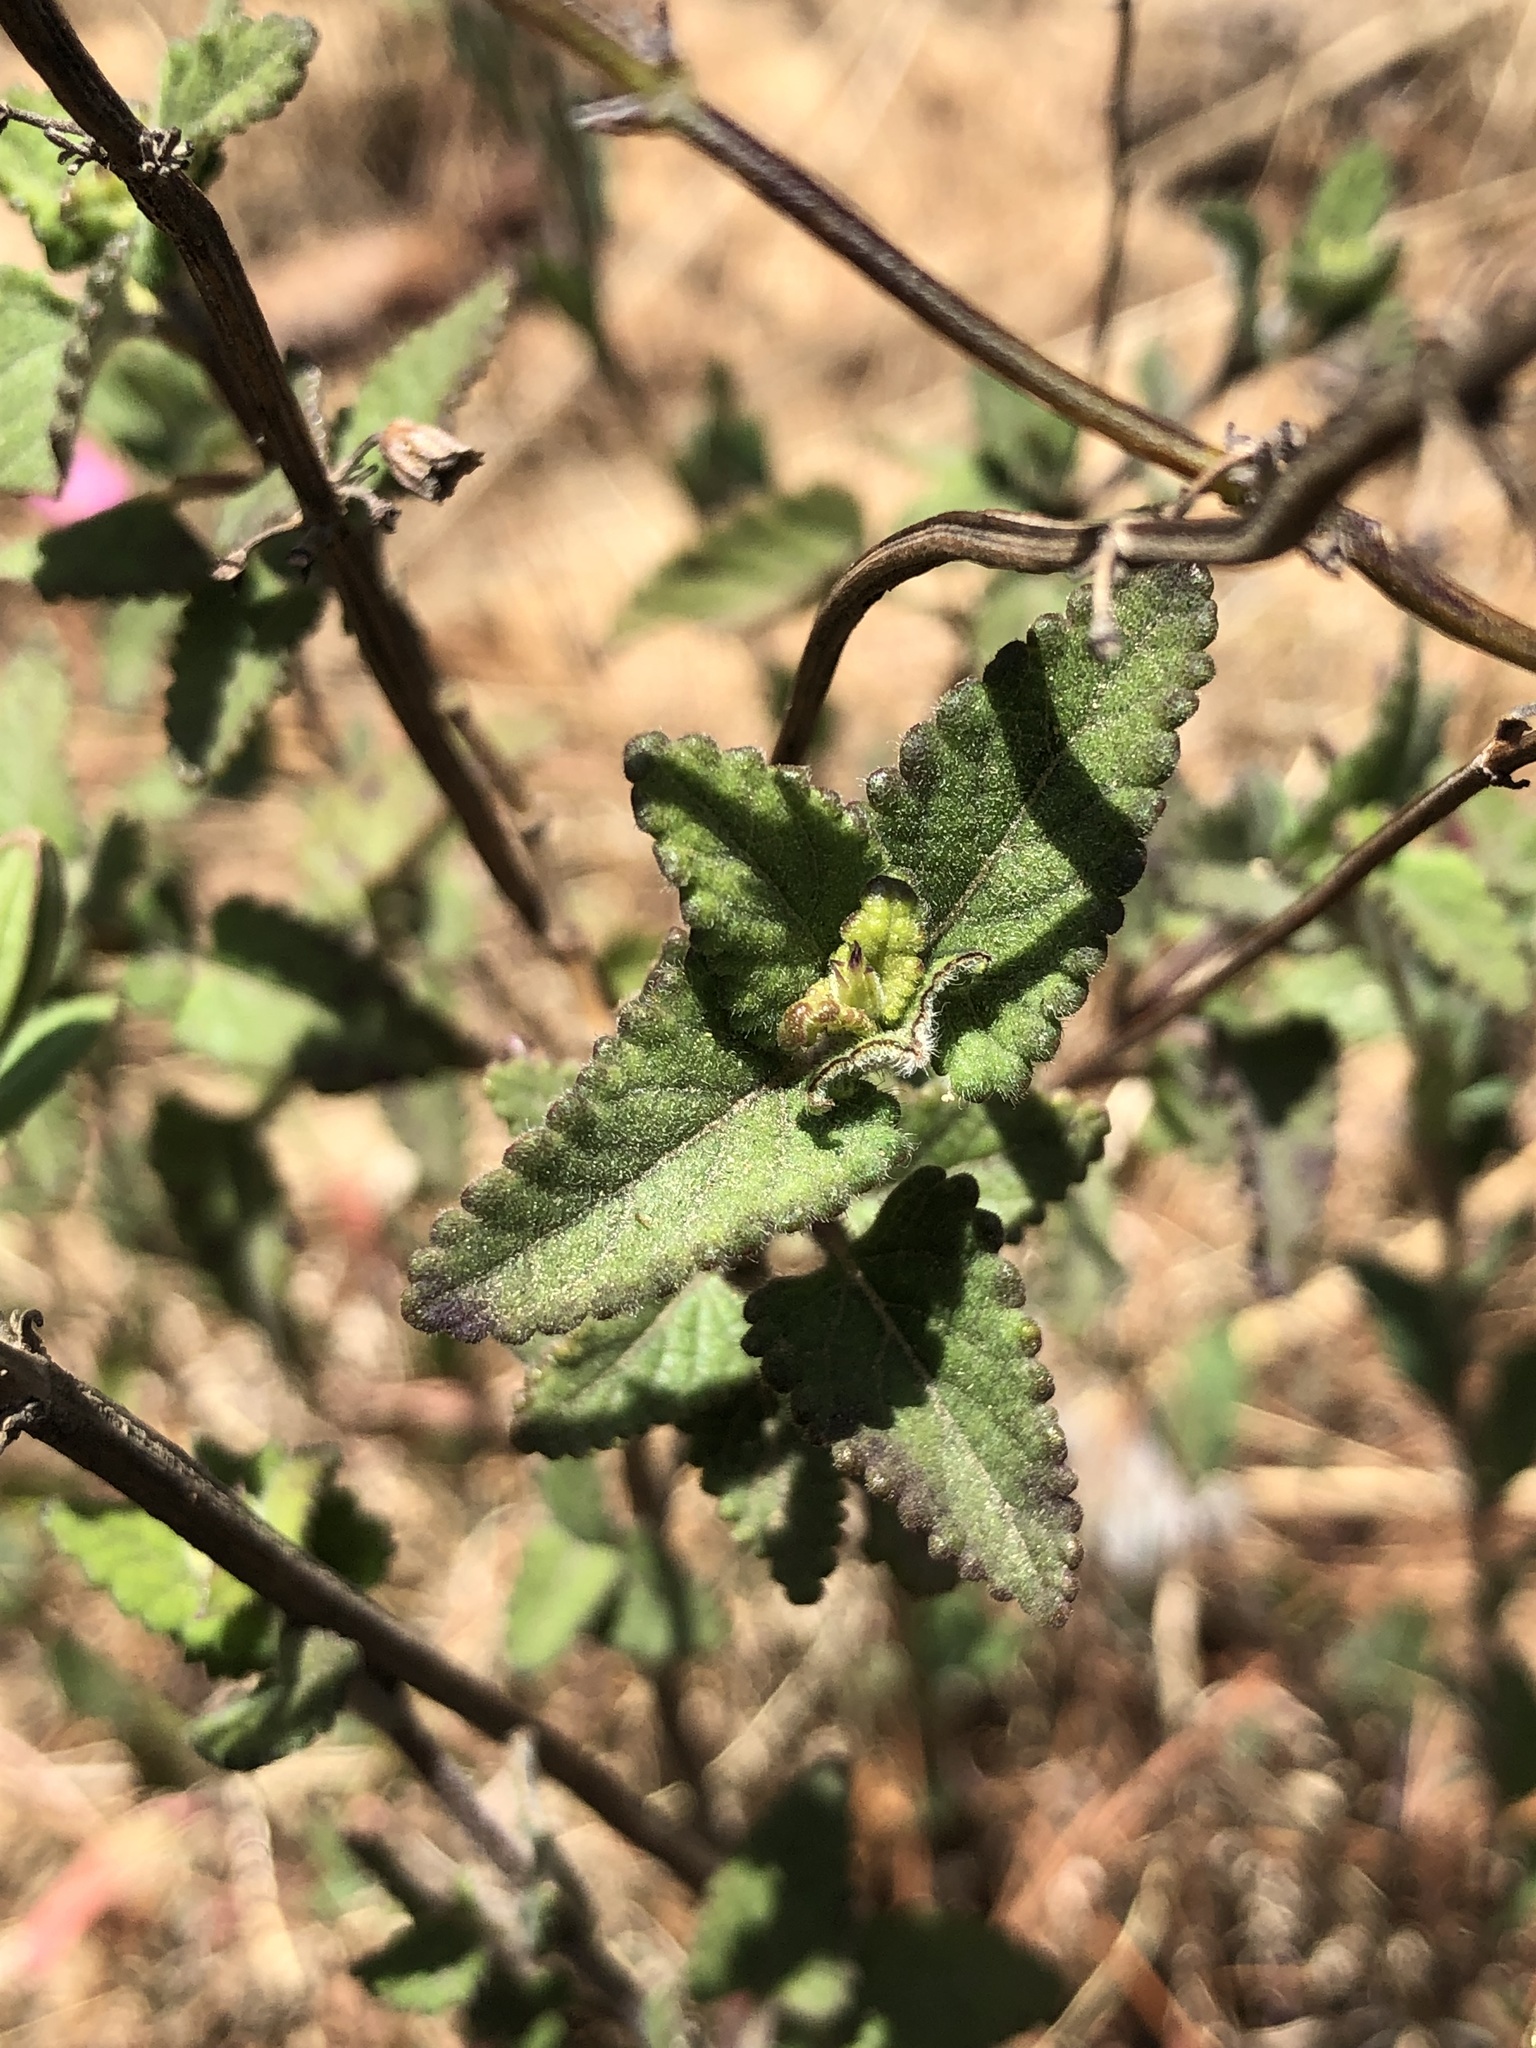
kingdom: Plantae
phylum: Tracheophyta
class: Magnoliopsida
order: Lamiales
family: Lamiaceae
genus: Salvia
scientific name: Salvia setulosa
